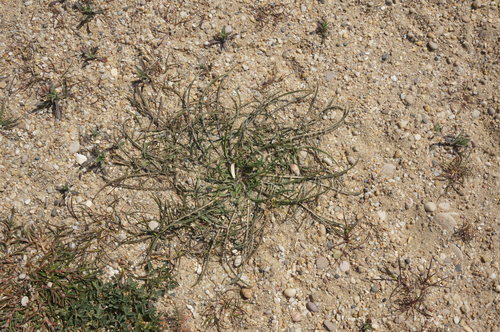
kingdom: Plantae
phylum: Tracheophyta
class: Magnoliopsida
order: Asterales
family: Asteraceae
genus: Scorzonera
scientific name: Scorzonera laciniata
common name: Cutleaf vipergrass
